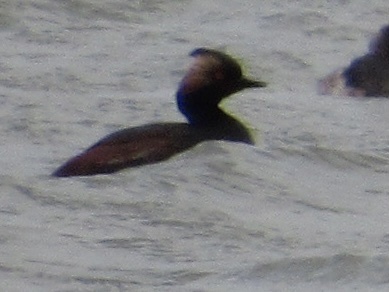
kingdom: Animalia
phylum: Chordata
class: Aves
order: Podicipediformes
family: Podicipedidae
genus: Podiceps
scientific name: Podiceps nigricollis
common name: Black-necked grebe
